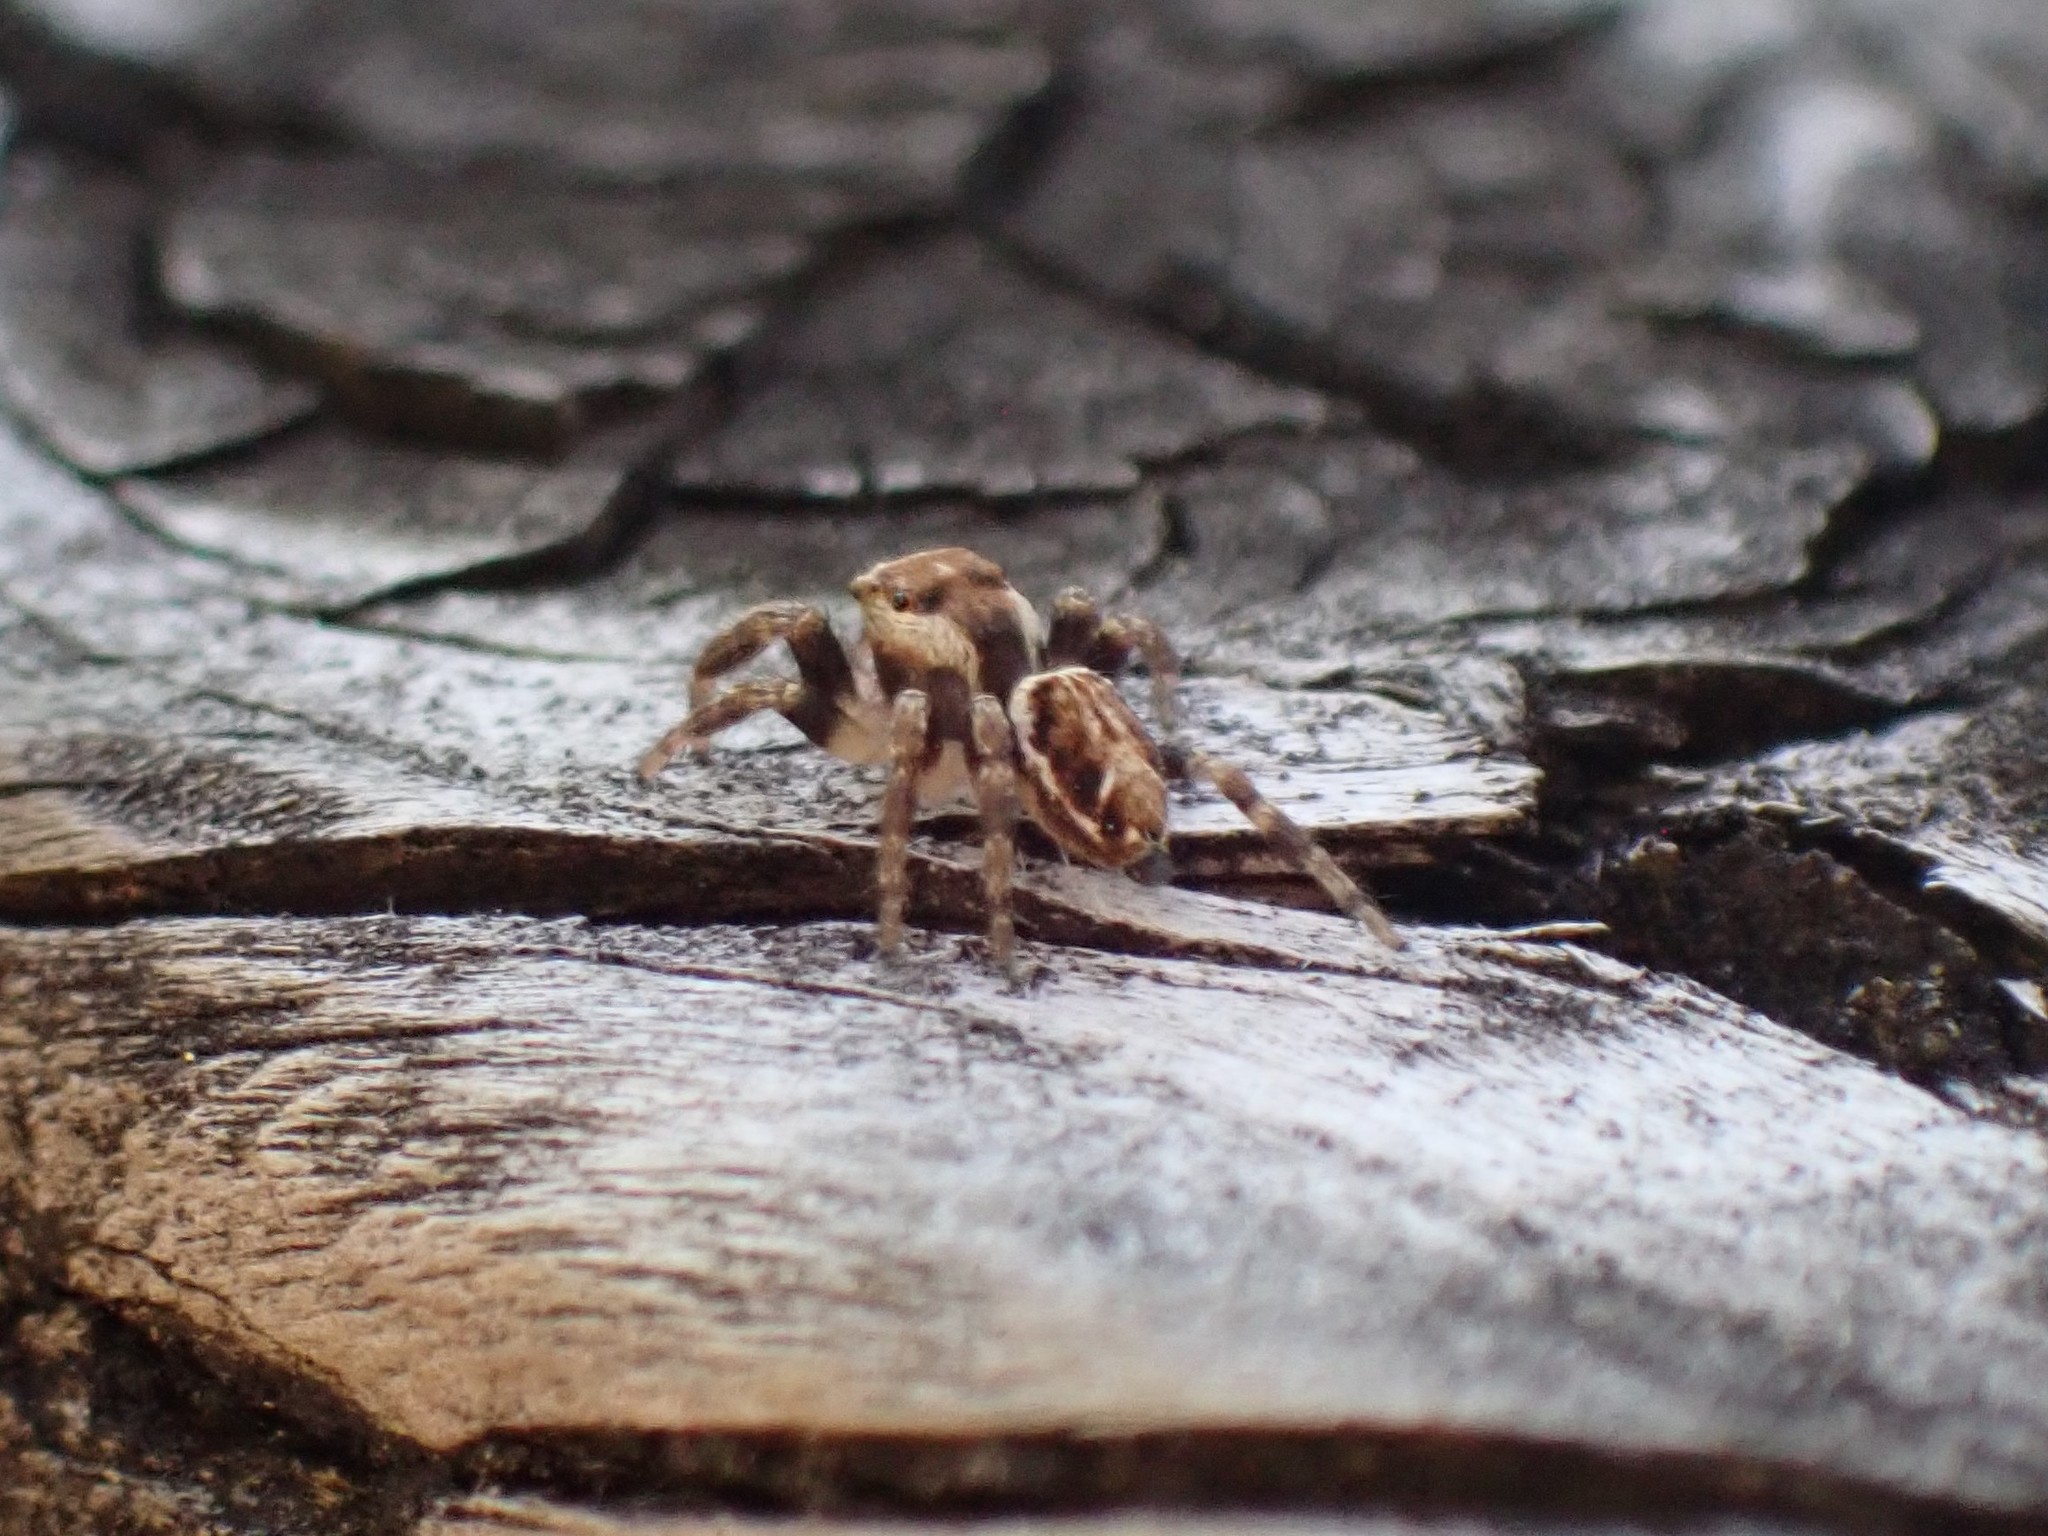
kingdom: Animalia
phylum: Arthropoda
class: Arachnida
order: Araneae
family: Salticidae
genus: Evarcha
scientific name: Evarcha proszynskii
